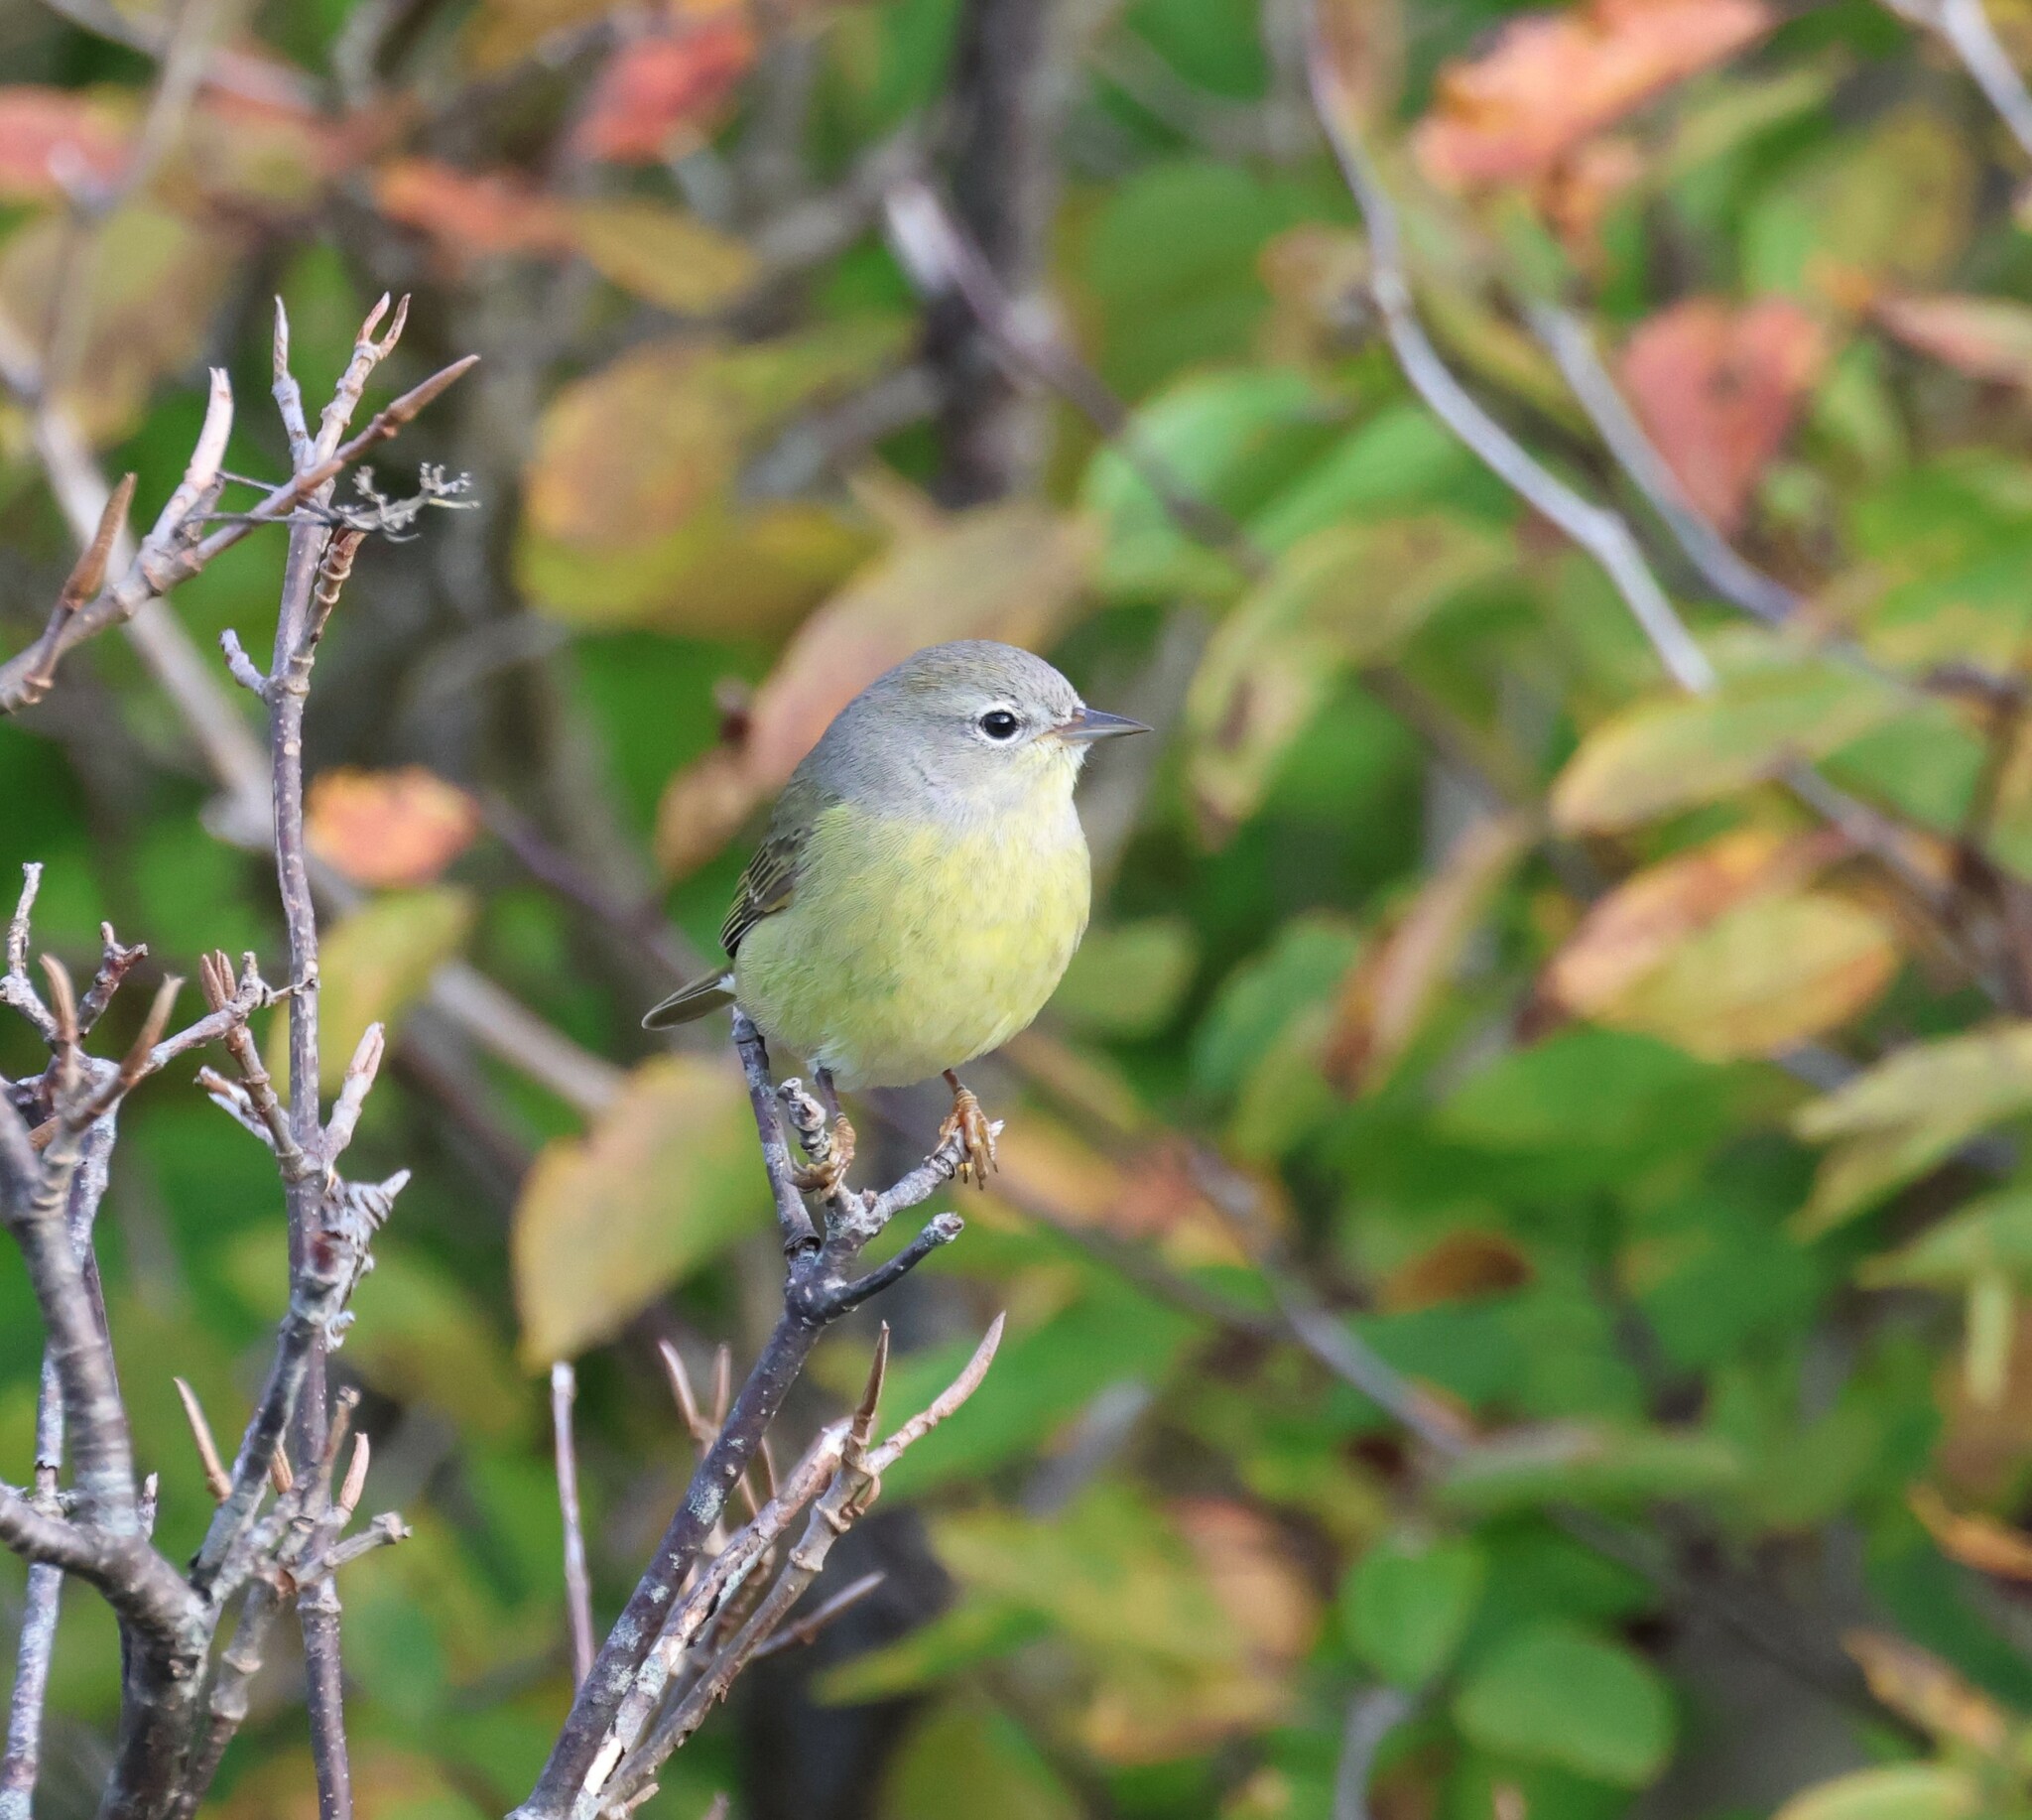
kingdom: Animalia
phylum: Chordata
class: Aves
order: Passeriformes
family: Parulidae
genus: Leiothlypis
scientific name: Leiothlypis celata
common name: Orange-crowned warbler
